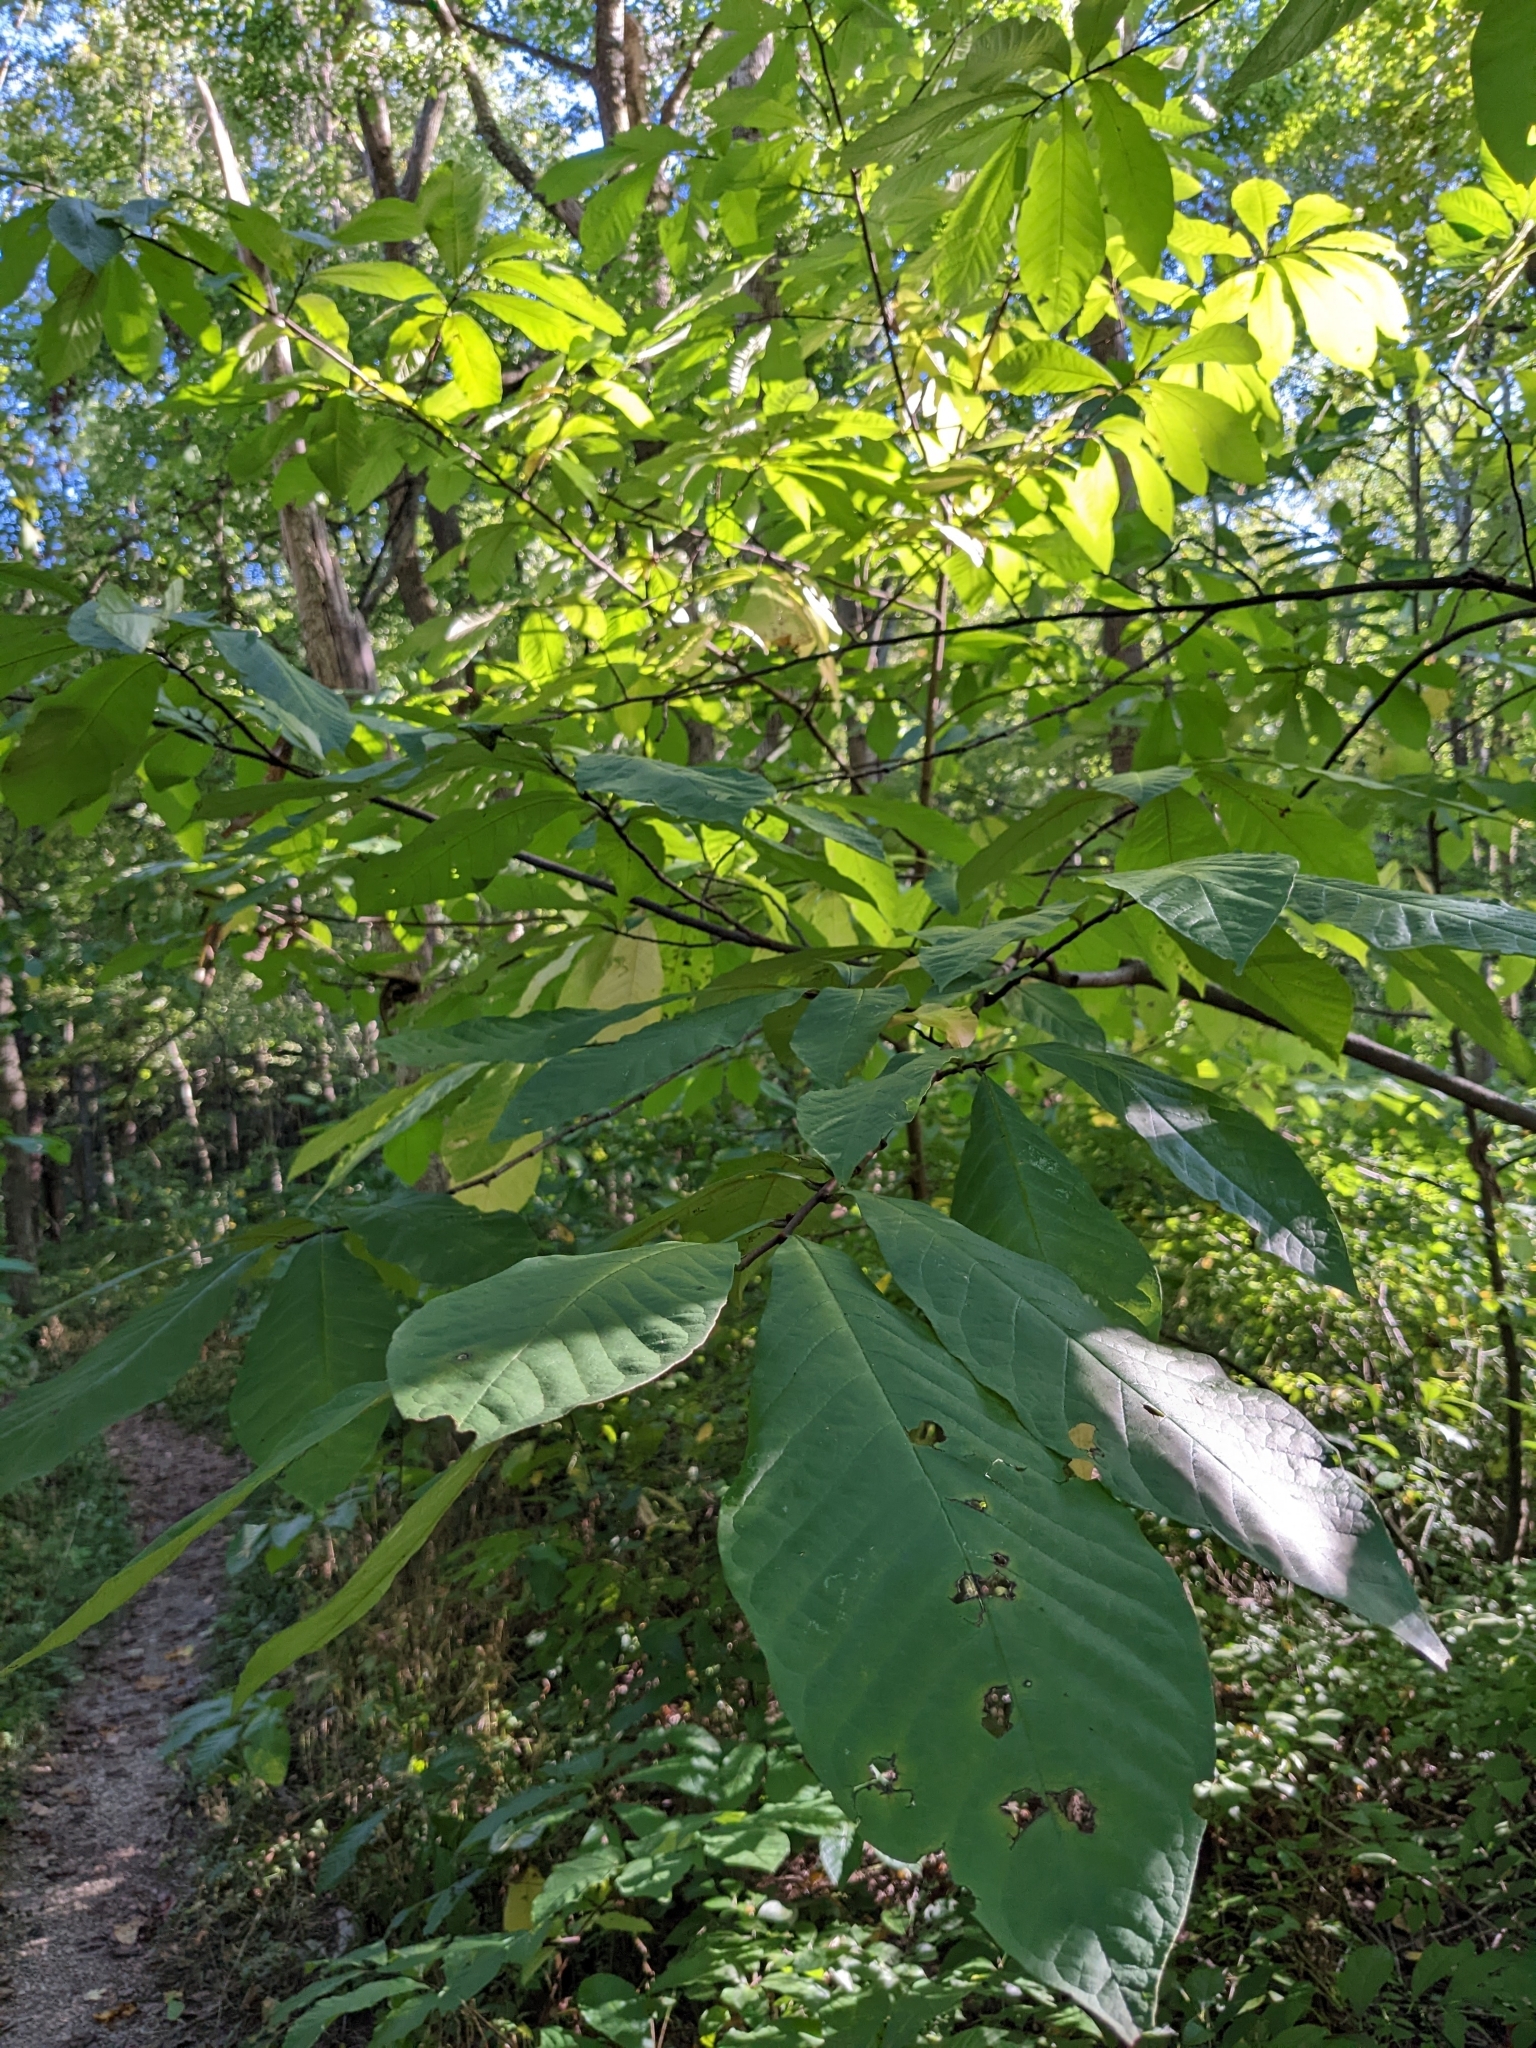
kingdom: Plantae
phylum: Tracheophyta
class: Magnoliopsida
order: Magnoliales
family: Annonaceae
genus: Asimina
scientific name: Asimina triloba
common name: Dog-banana
